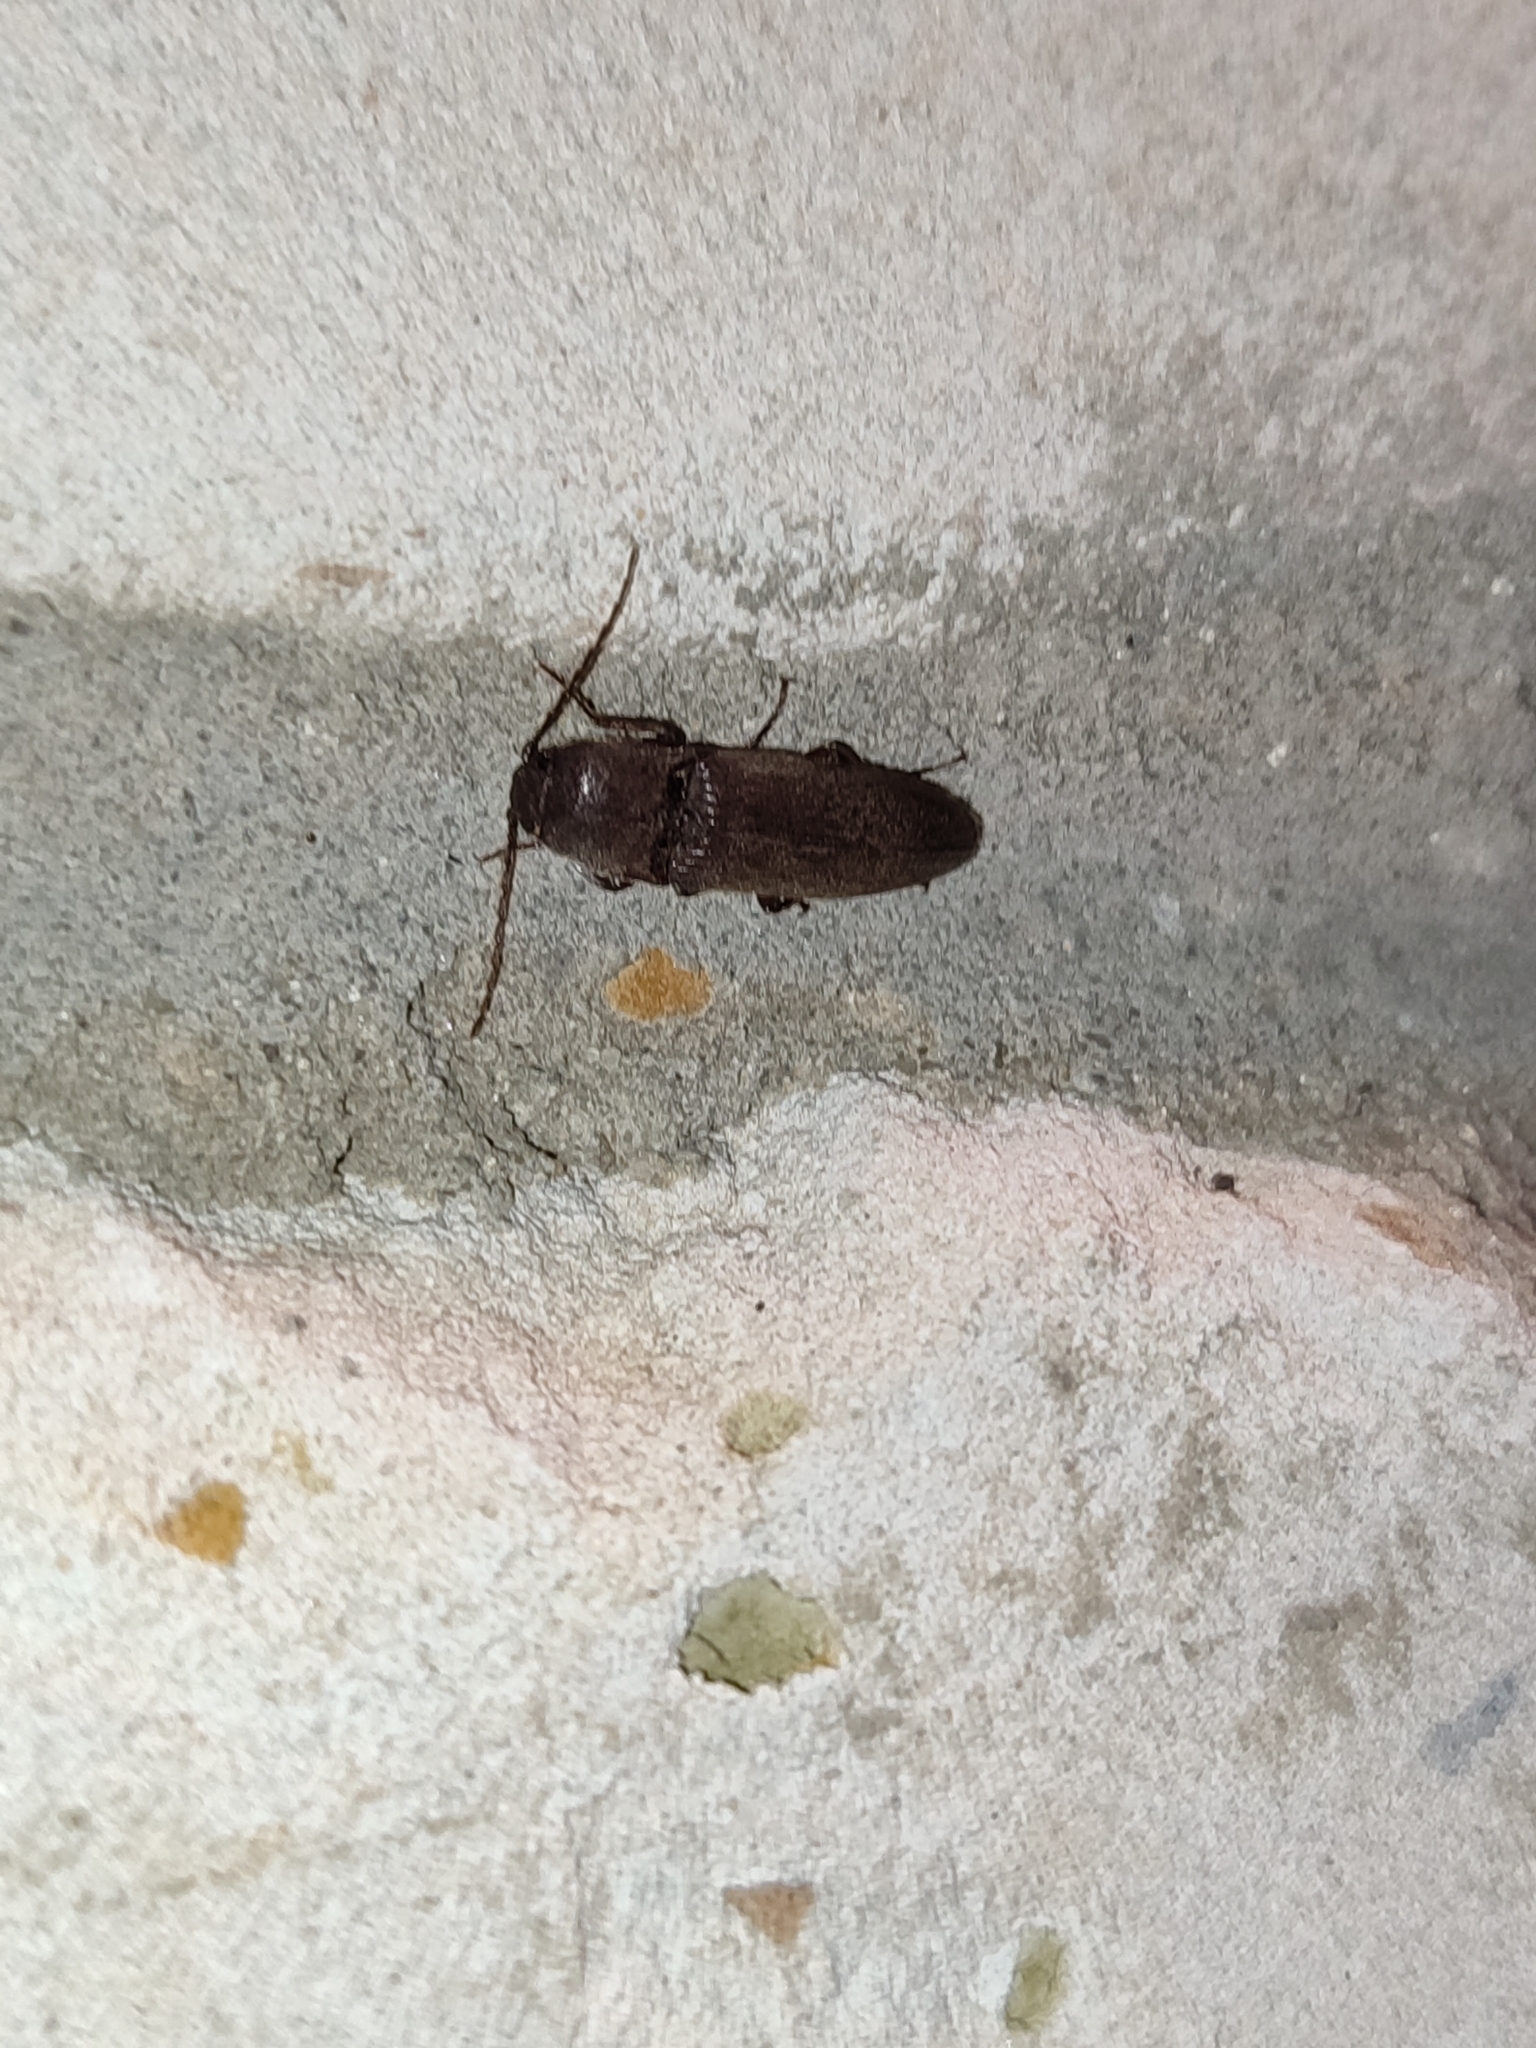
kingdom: Animalia
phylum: Arthropoda
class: Insecta
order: Coleoptera
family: Elateridae
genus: Melanotus
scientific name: Melanotus fusciceps
